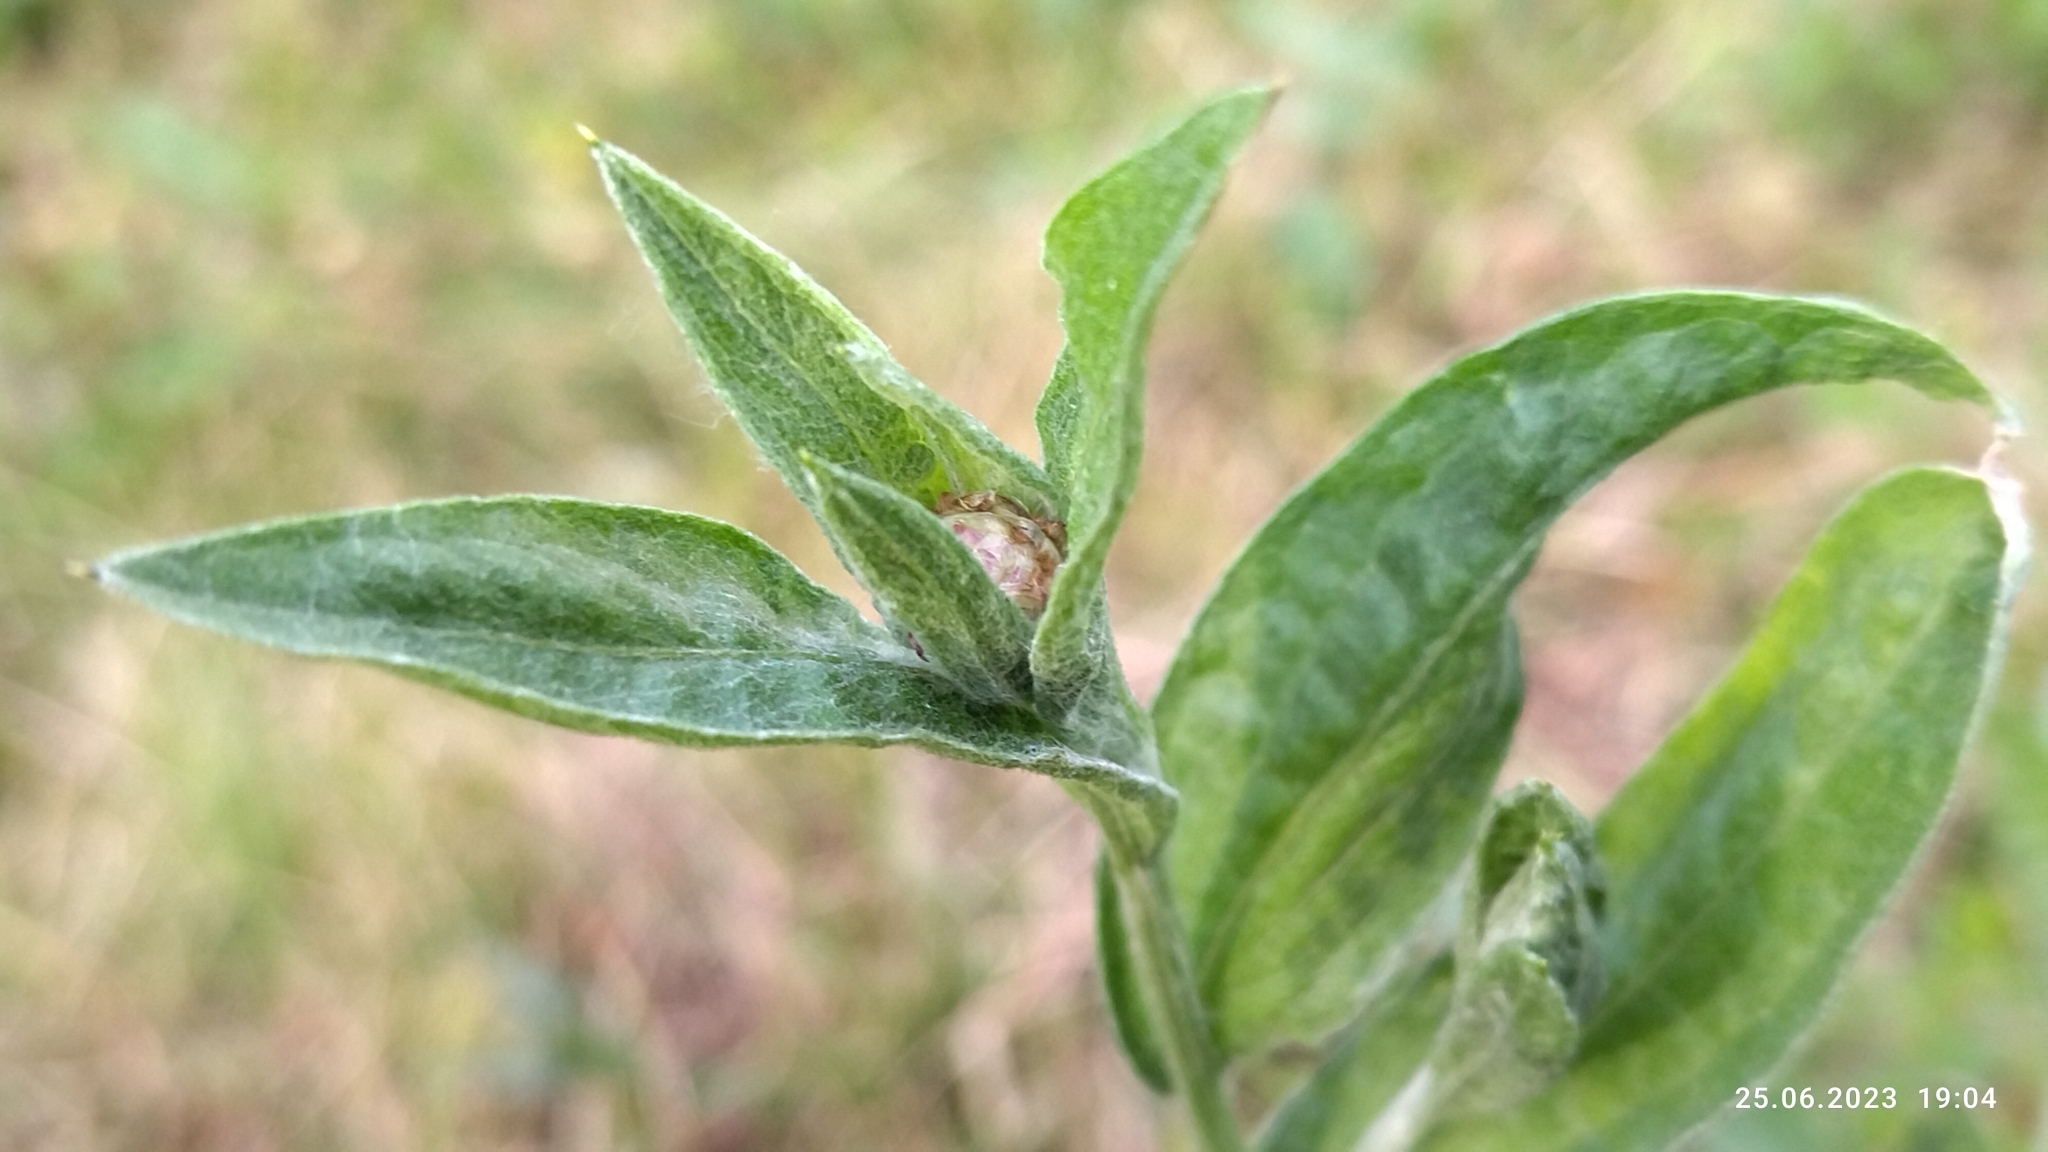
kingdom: Plantae
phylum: Tracheophyta
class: Magnoliopsida
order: Asterales
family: Asteraceae
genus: Centaurea
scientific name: Centaurea jacea
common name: Brown knapweed
